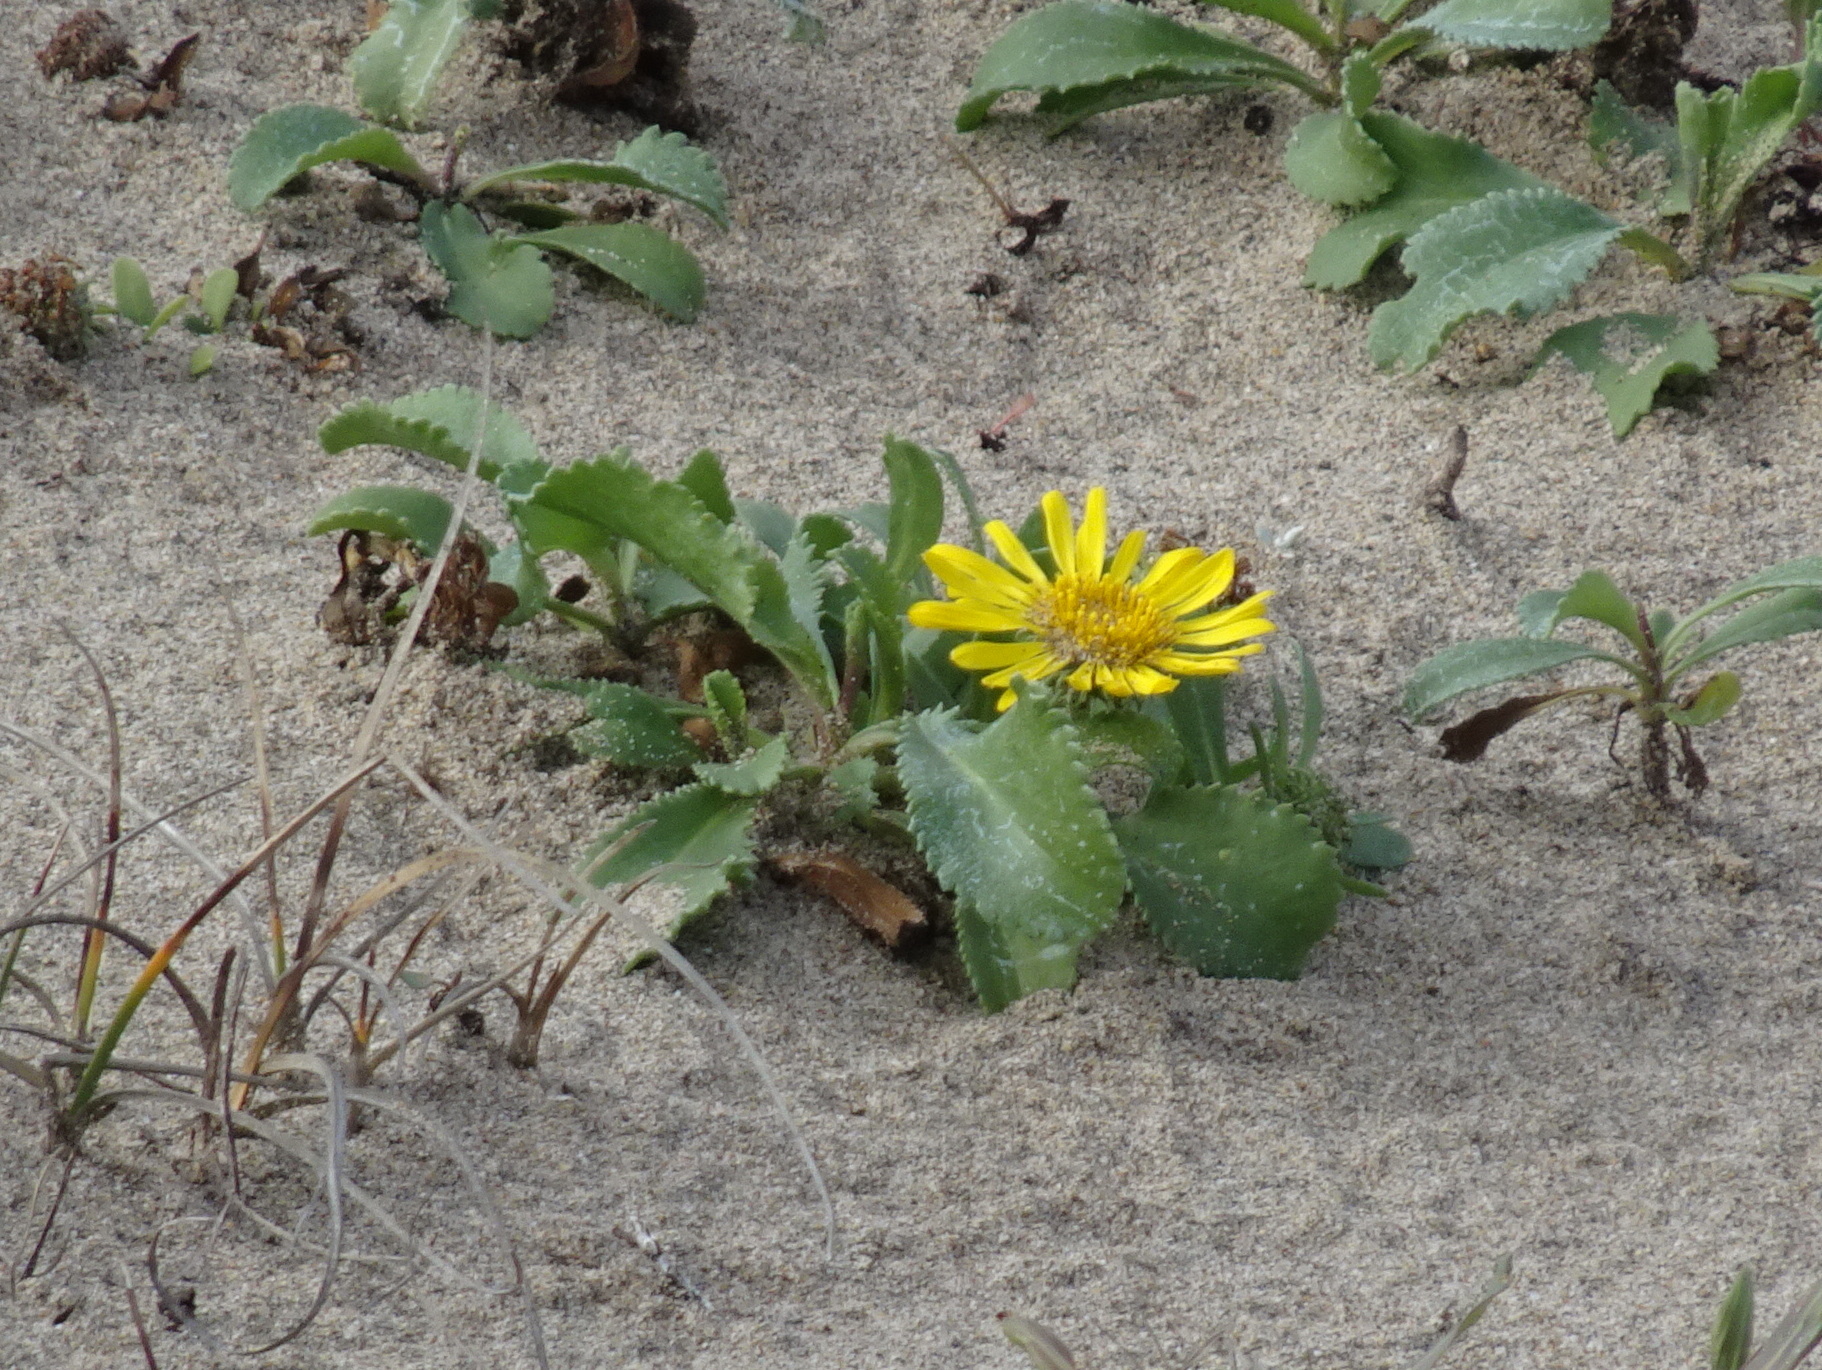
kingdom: Plantae
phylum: Tracheophyta
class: Magnoliopsida
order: Asterales
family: Asteraceae
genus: Grindelia
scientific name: Grindelia hirsutula
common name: Hairy gumweed
